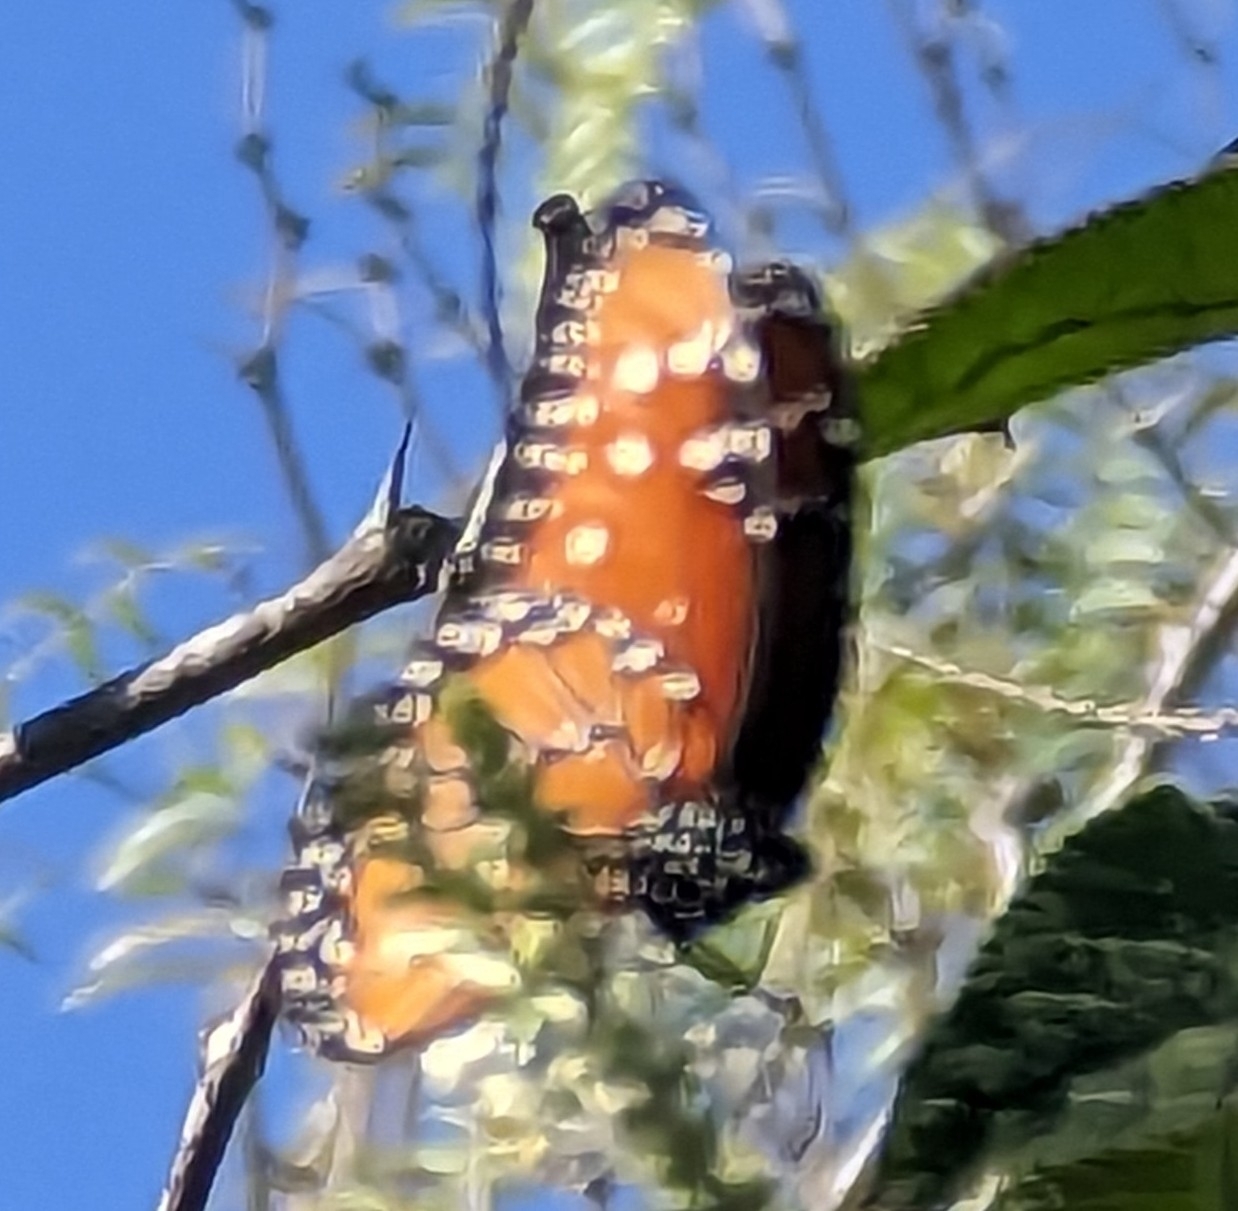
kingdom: Animalia
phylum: Arthropoda
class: Insecta
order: Lepidoptera
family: Nymphalidae
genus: Danaus
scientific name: Danaus gilippus
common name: Queen
